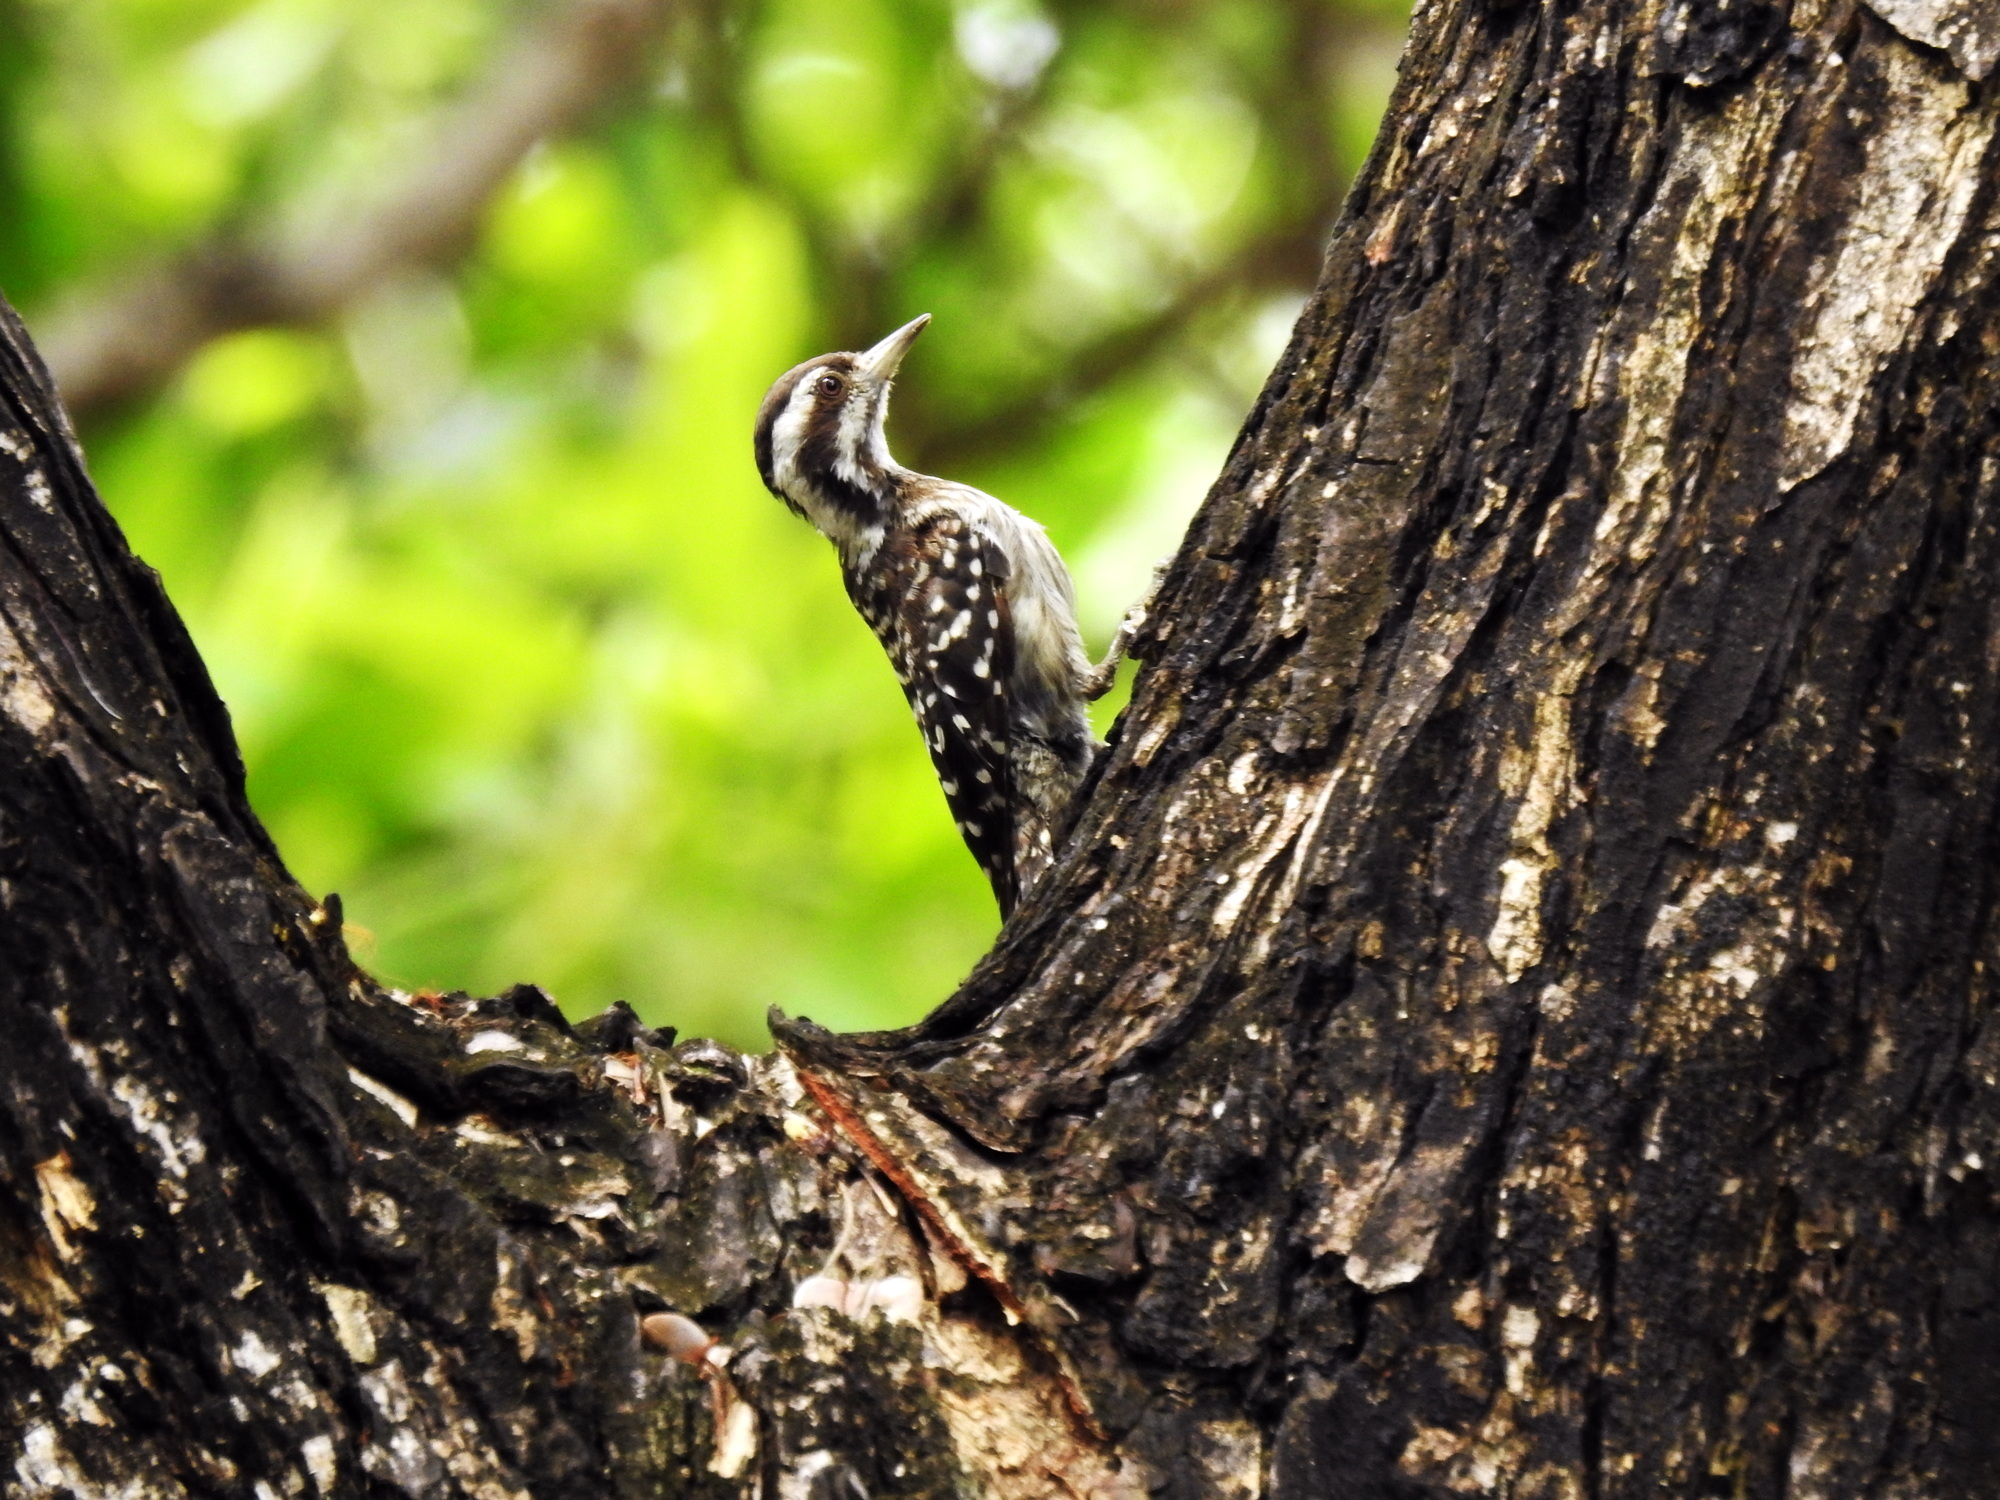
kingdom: Animalia
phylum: Chordata
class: Aves
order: Piciformes
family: Picidae
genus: Yungipicus
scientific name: Yungipicus moluccensis
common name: Sunda pygmy woodpecker
